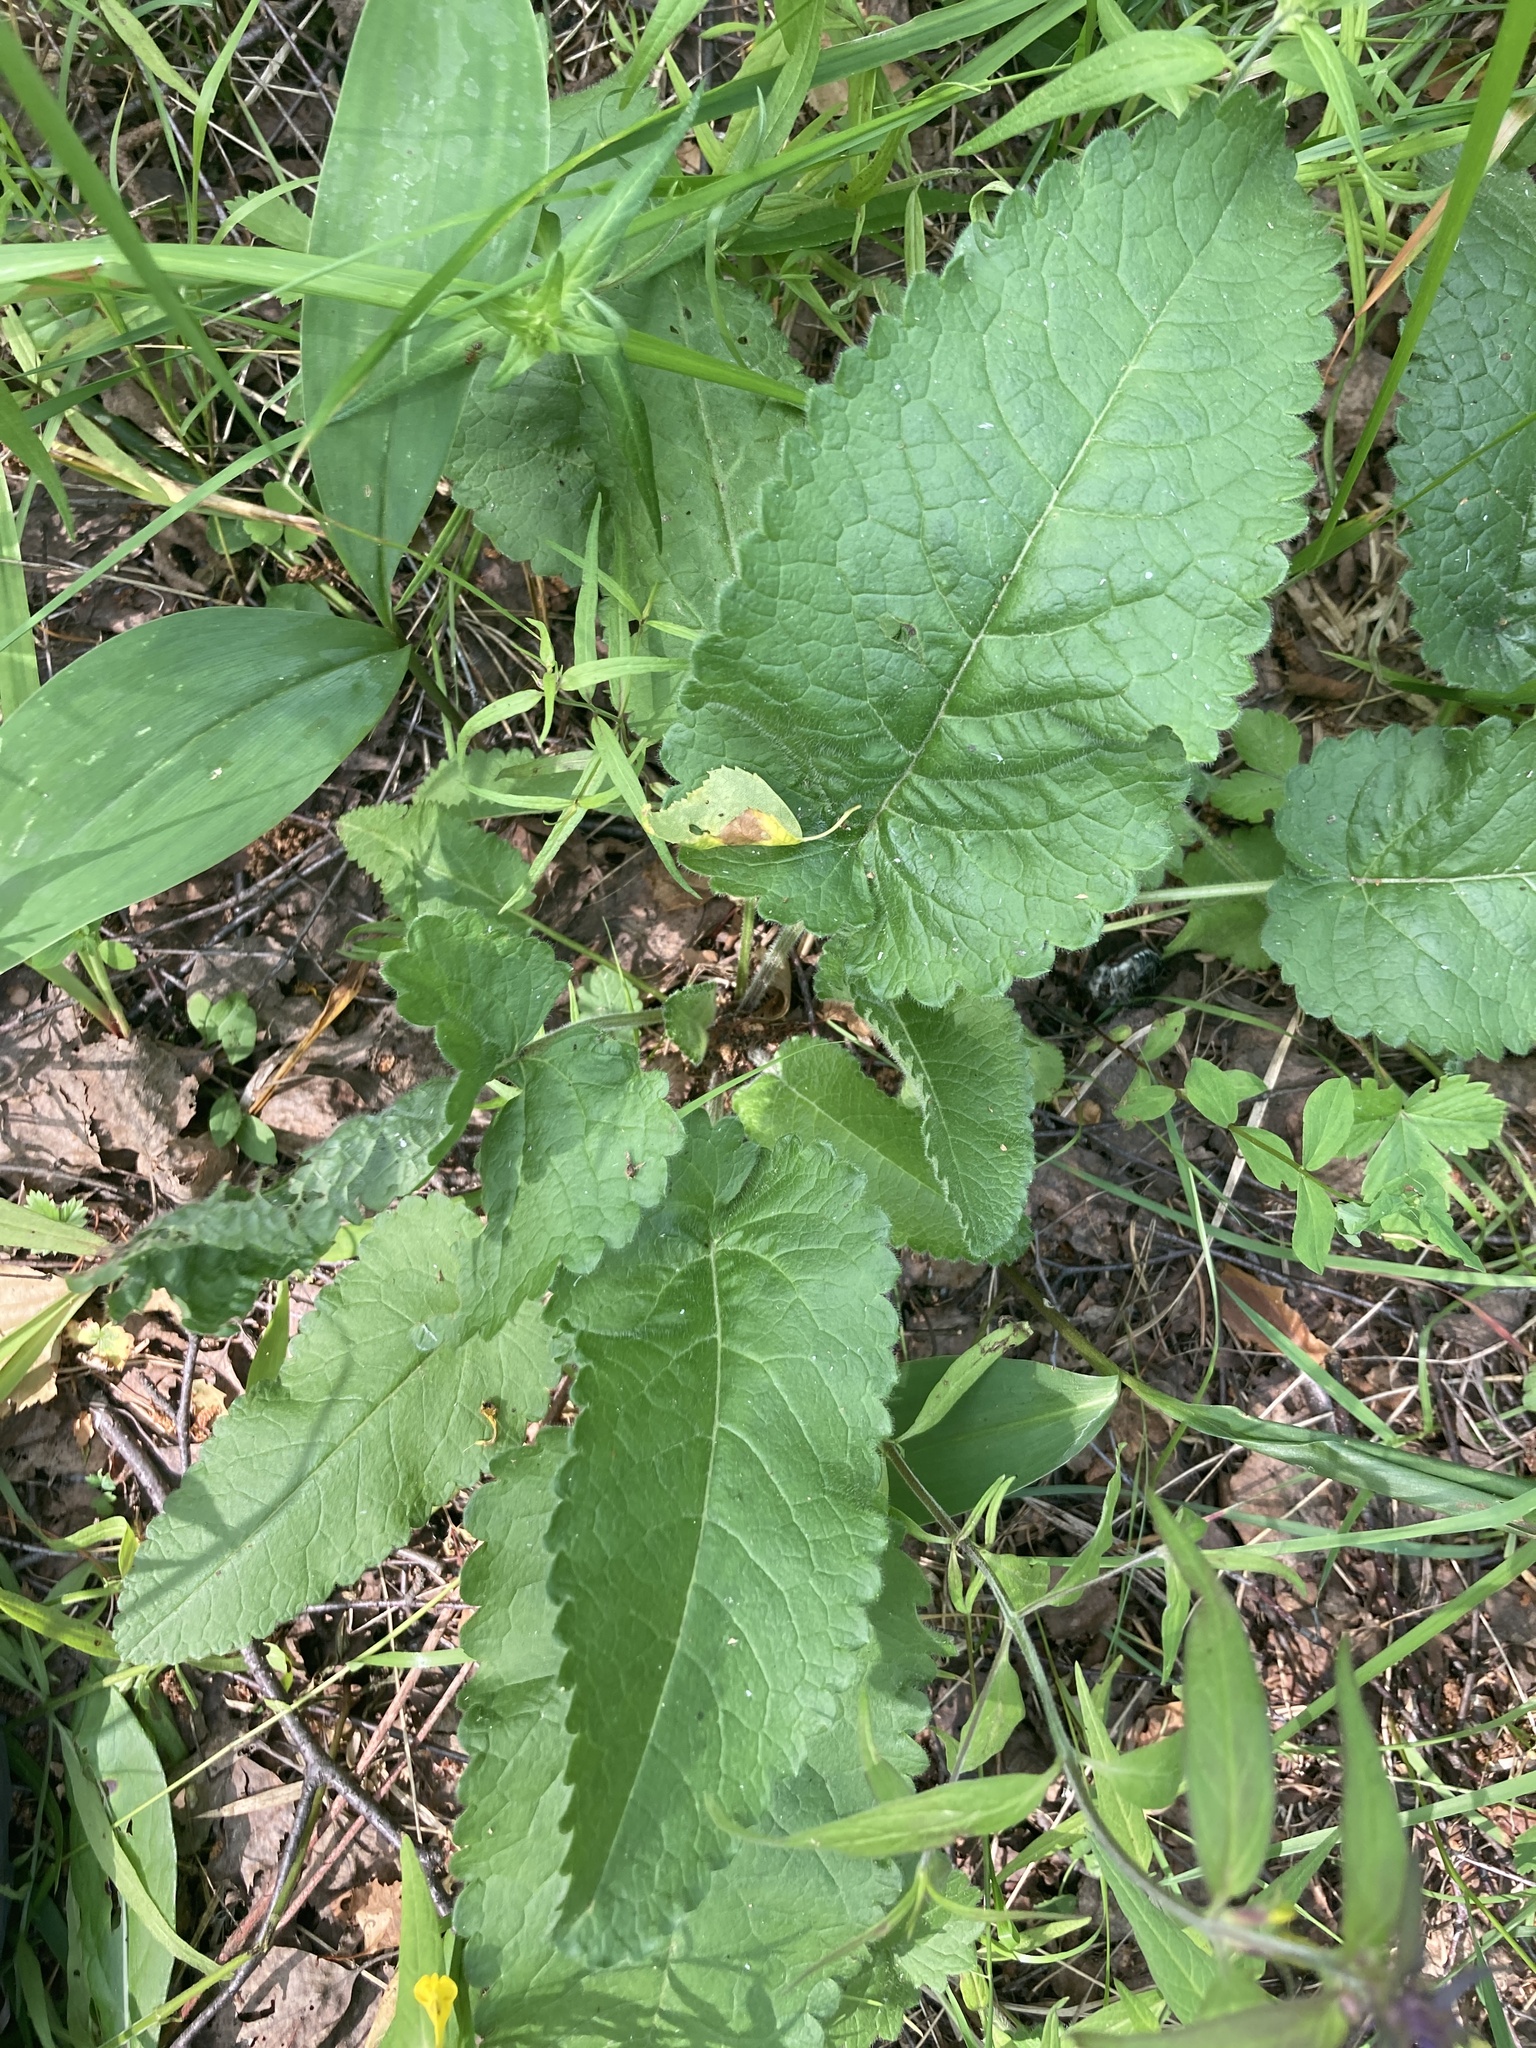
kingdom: Plantae
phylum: Tracheophyta
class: Magnoliopsida
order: Lamiales
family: Lamiaceae
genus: Betonica
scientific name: Betonica officinalis
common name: Bishop's-wort
